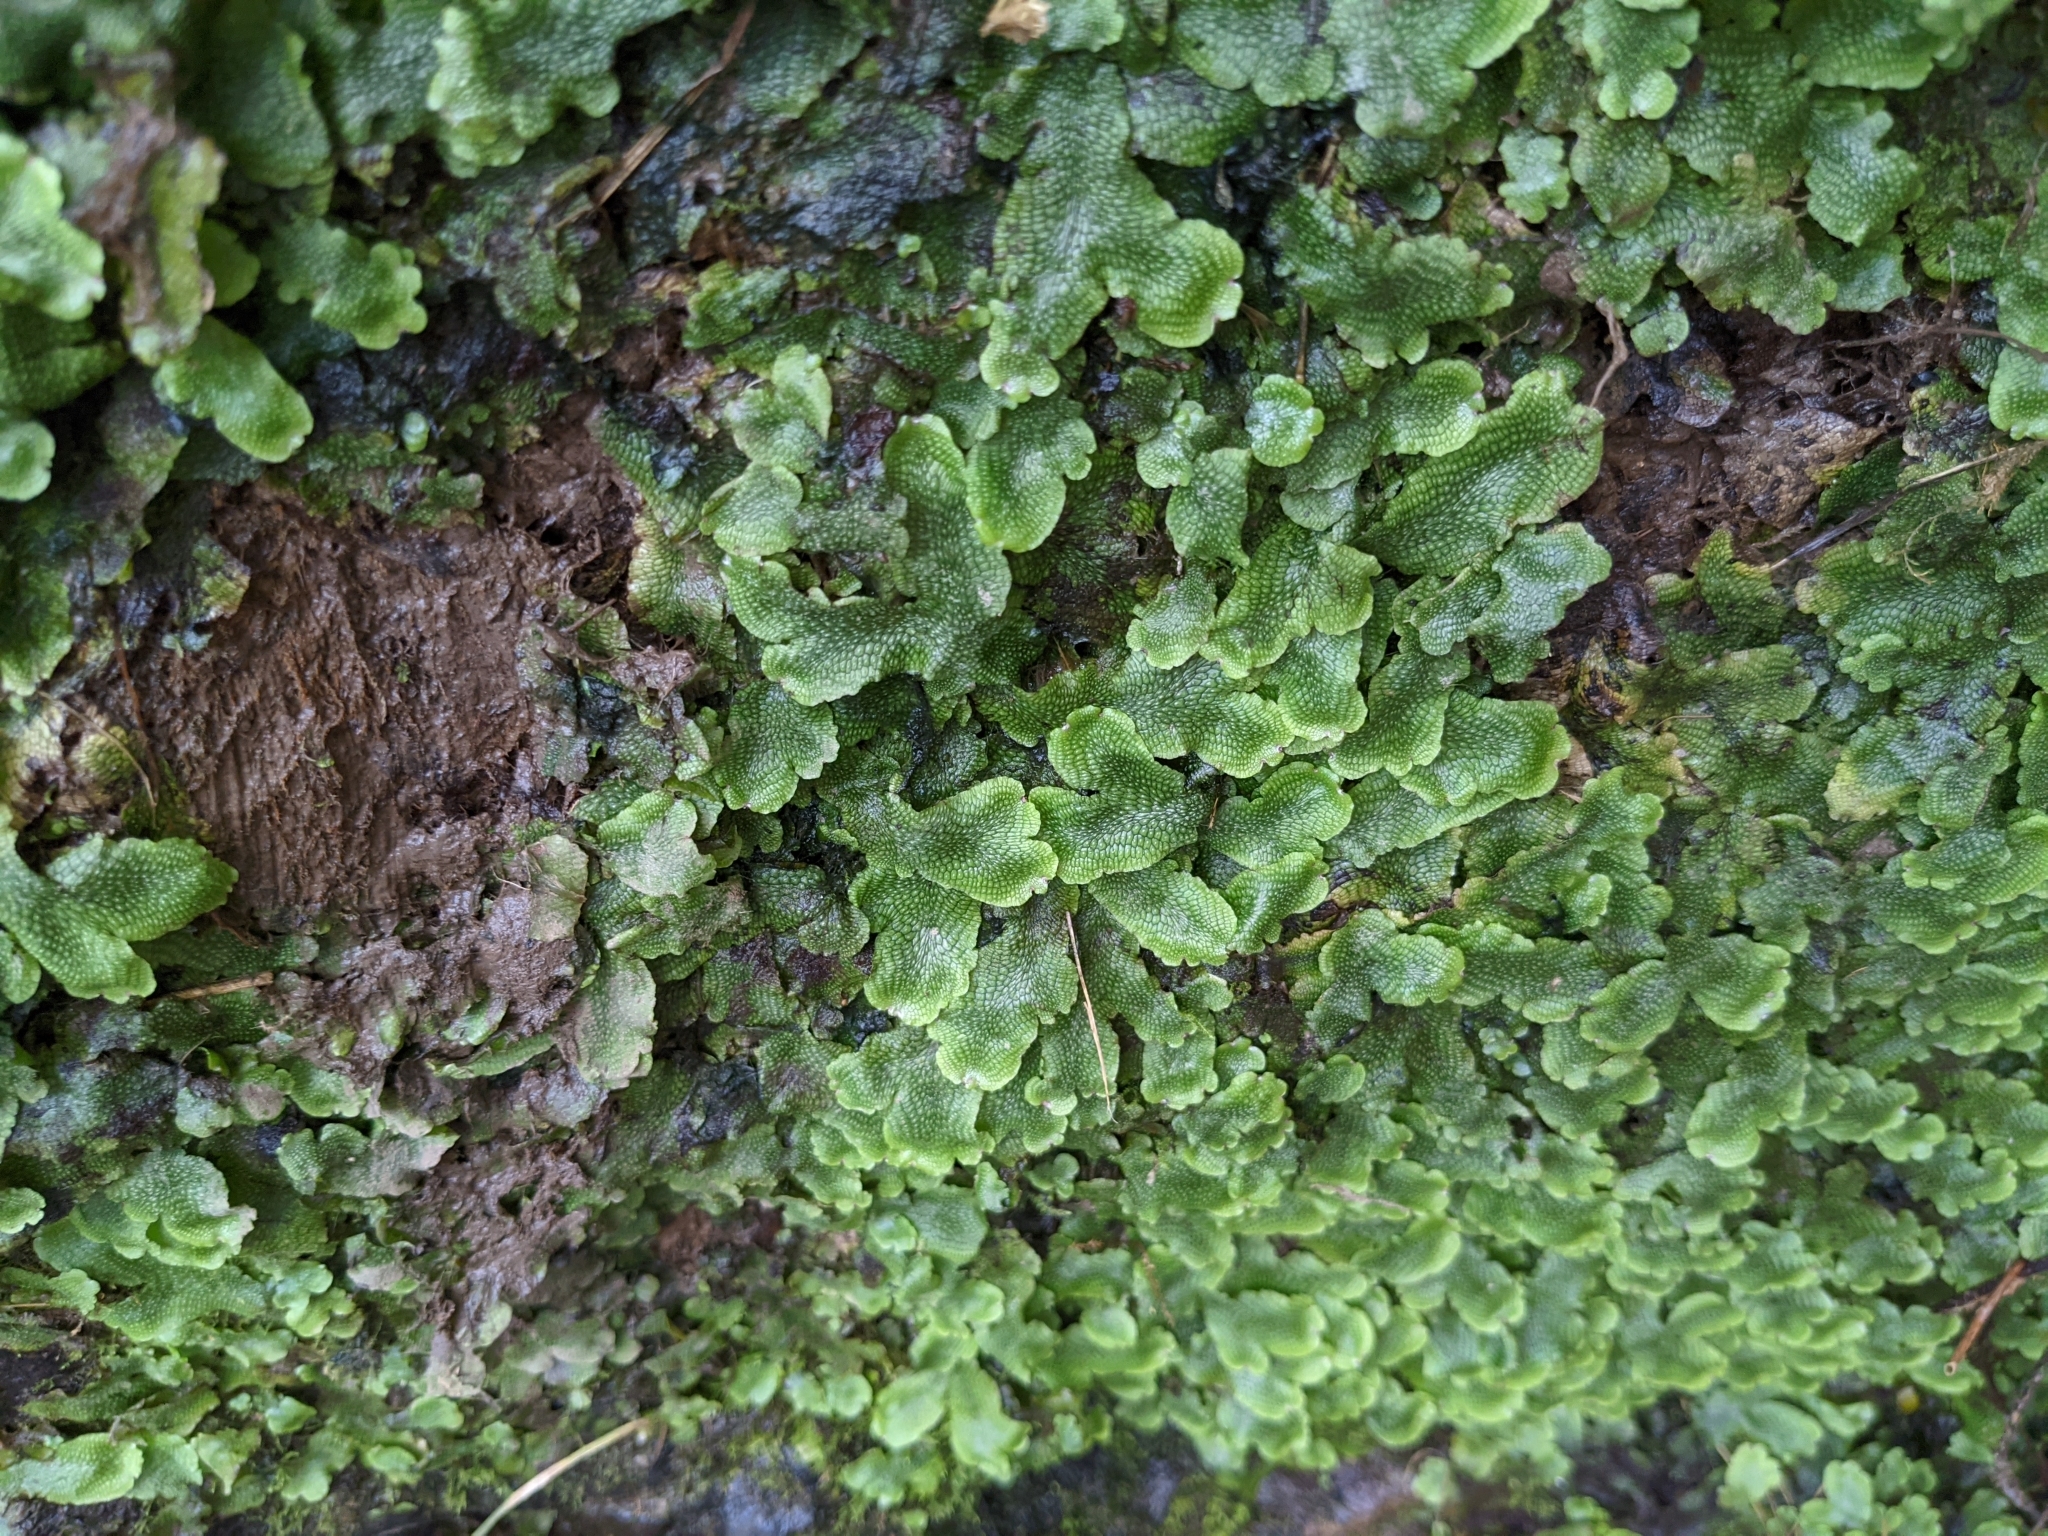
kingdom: Plantae
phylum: Marchantiophyta
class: Marchantiopsida
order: Marchantiales
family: Conocephalaceae
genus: Conocephalum
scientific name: Conocephalum salebrosum
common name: Cat-tongue liverwort
